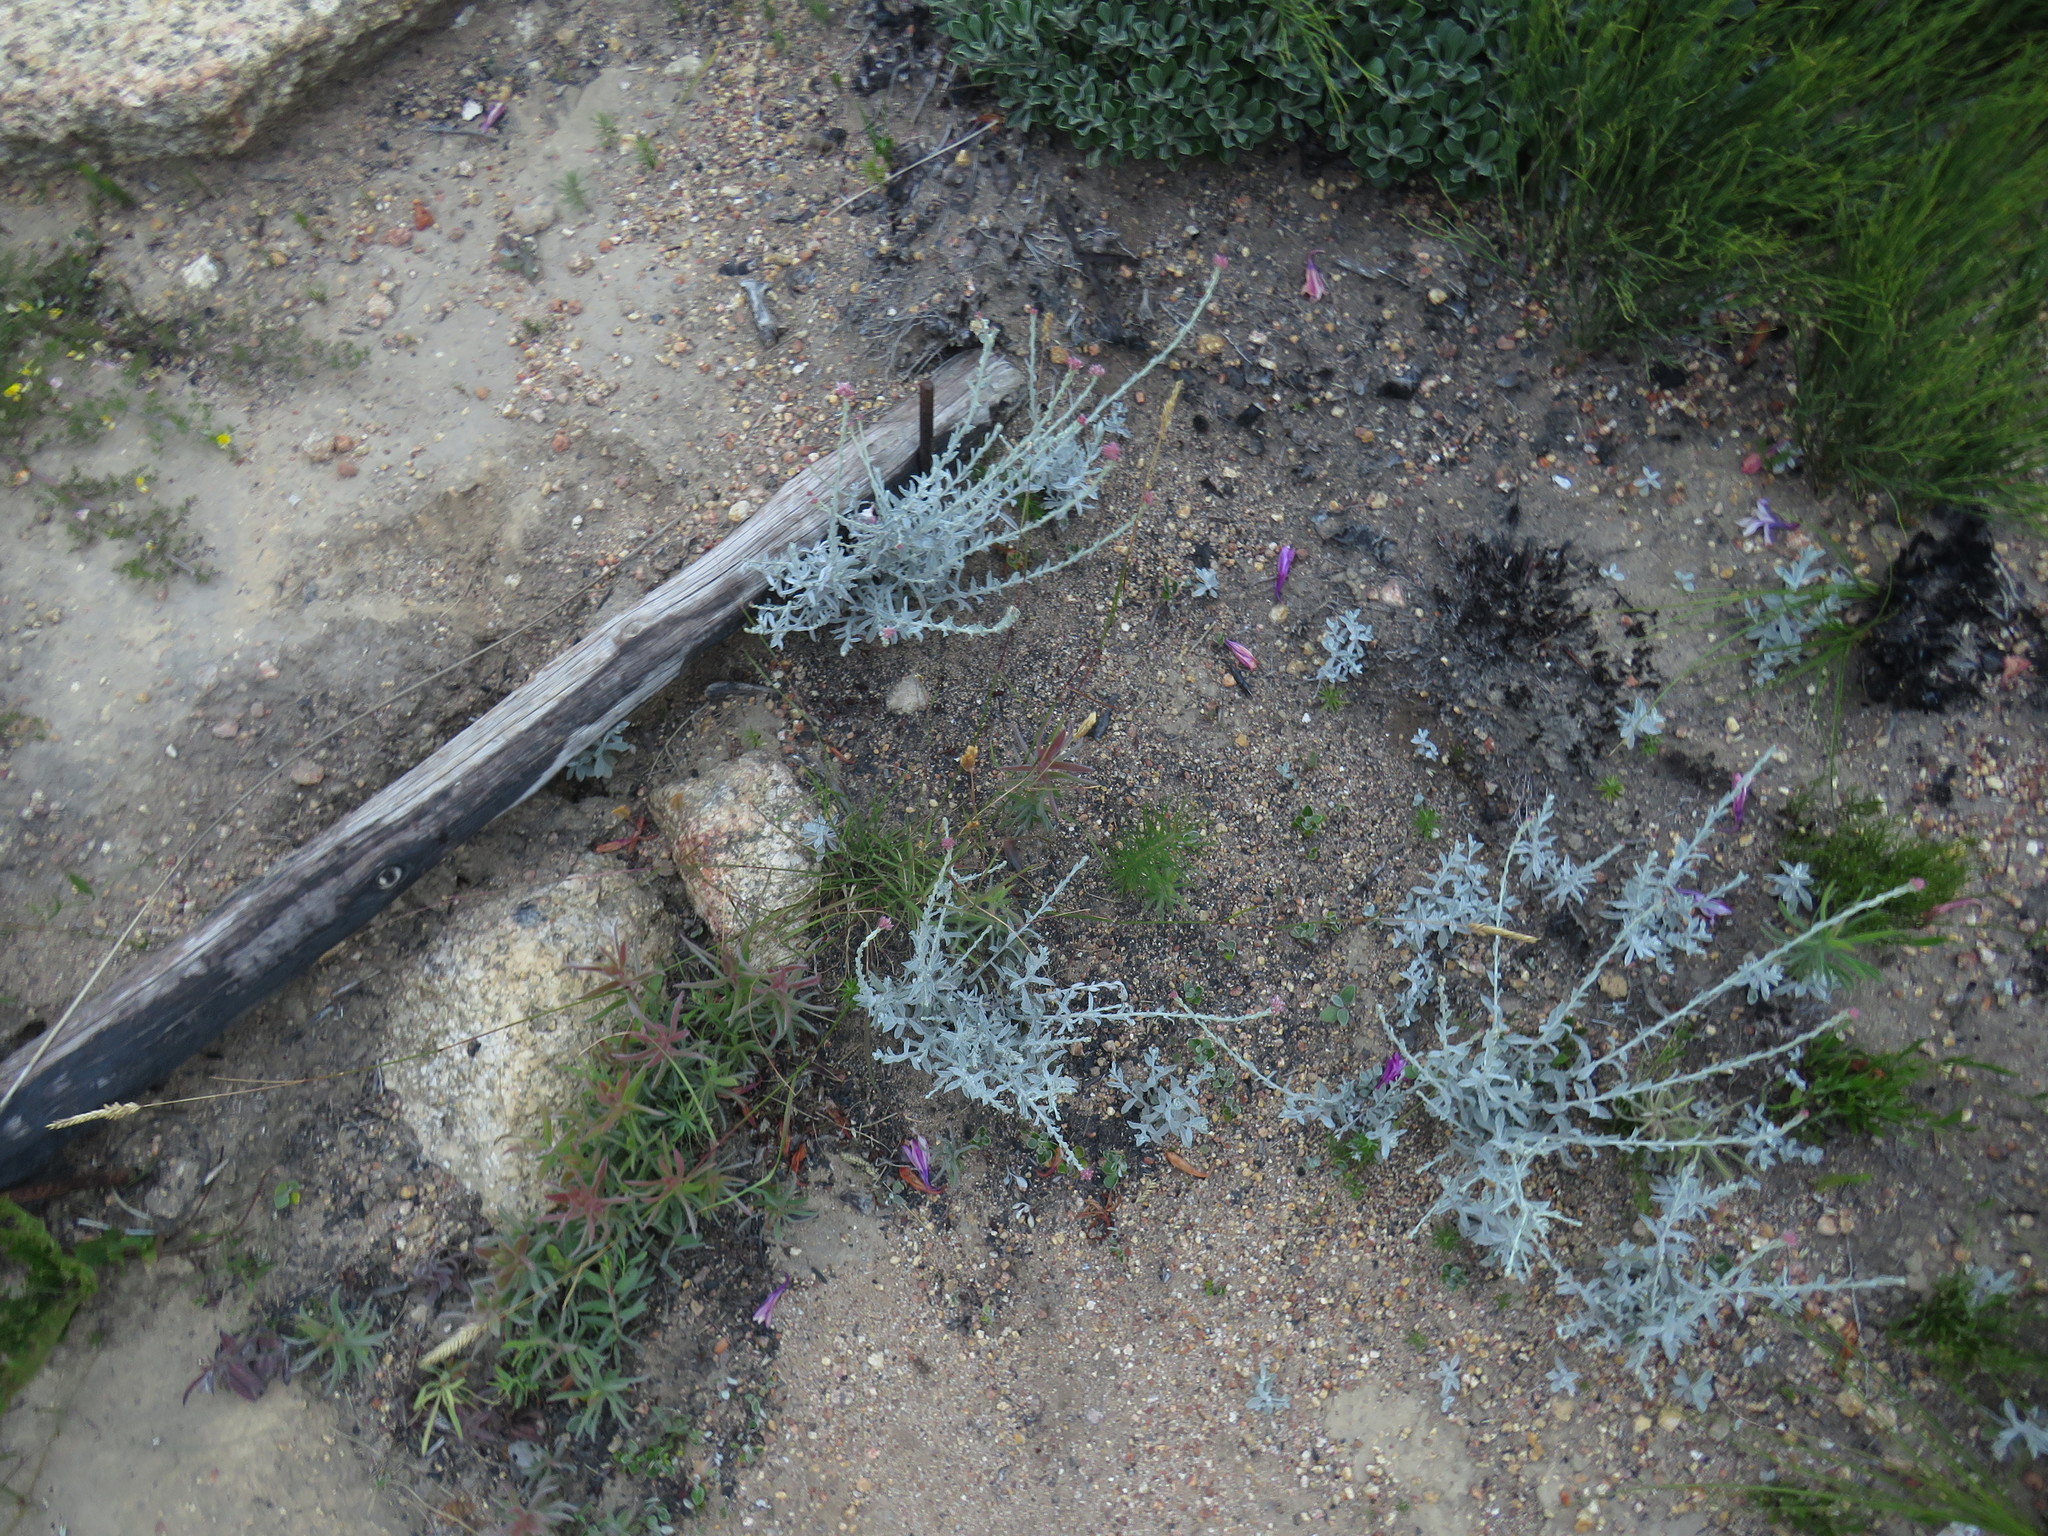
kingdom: Plantae
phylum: Tracheophyta
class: Magnoliopsida
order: Asterales
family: Asteraceae
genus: Helichrysum
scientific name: Helichrysum zeyheri
